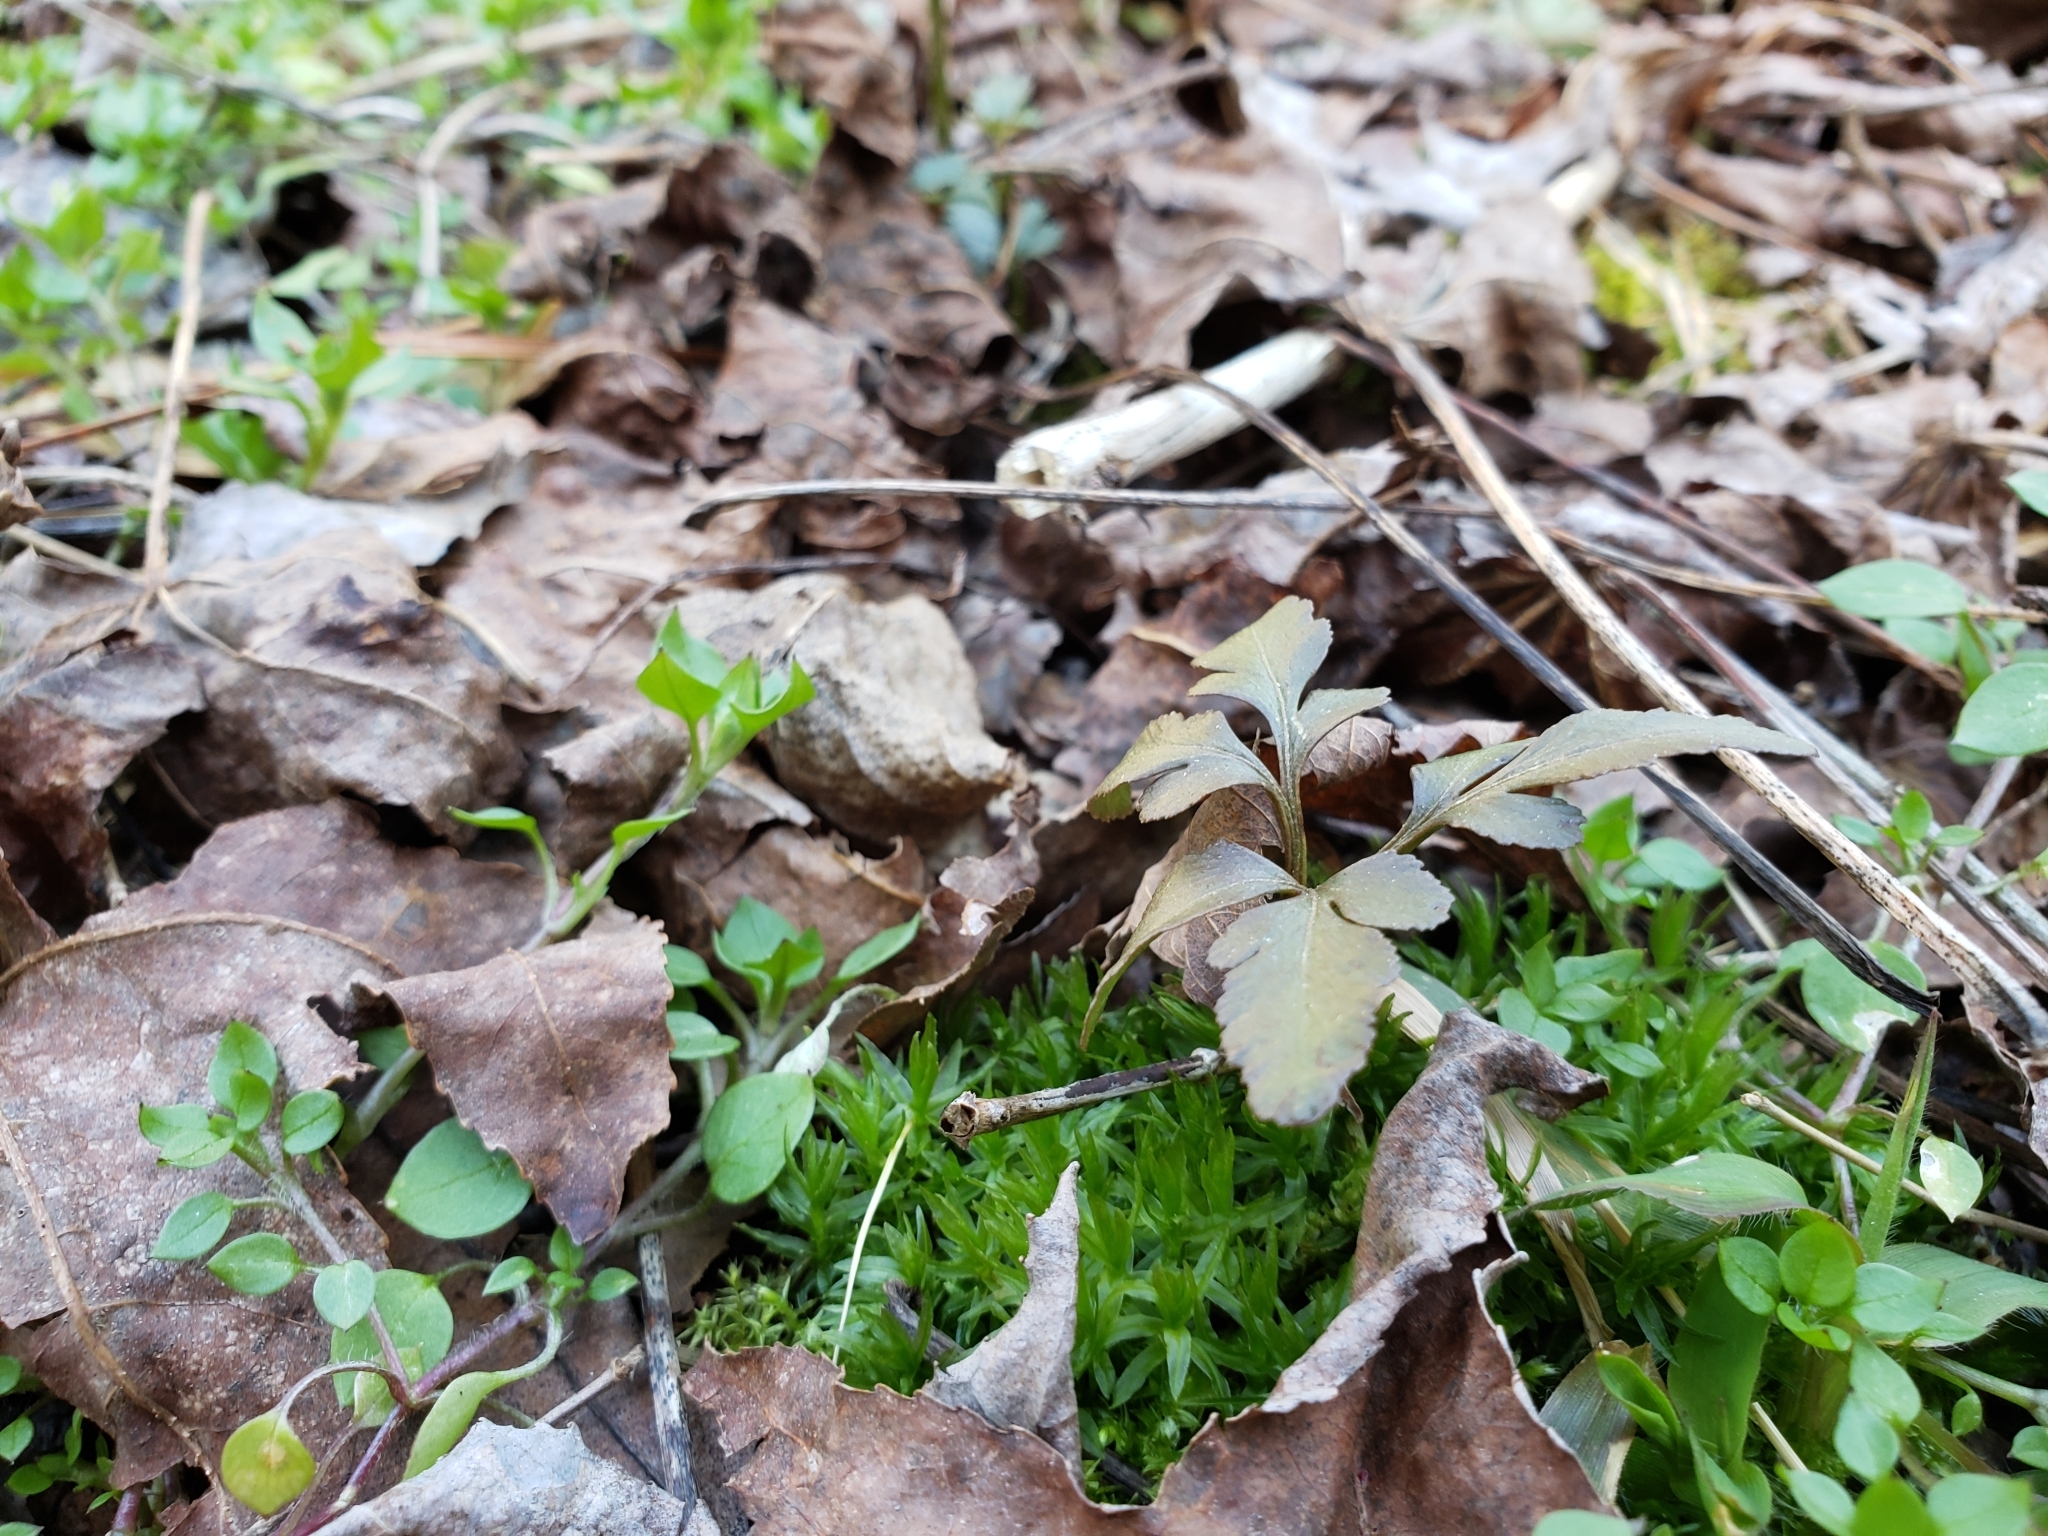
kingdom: Plantae
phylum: Tracheophyta
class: Polypodiopsida
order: Ophioglossales
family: Ophioglossaceae
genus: Sceptridium
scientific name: Sceptridium biternatum
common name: Sparse-lobed grapefern
